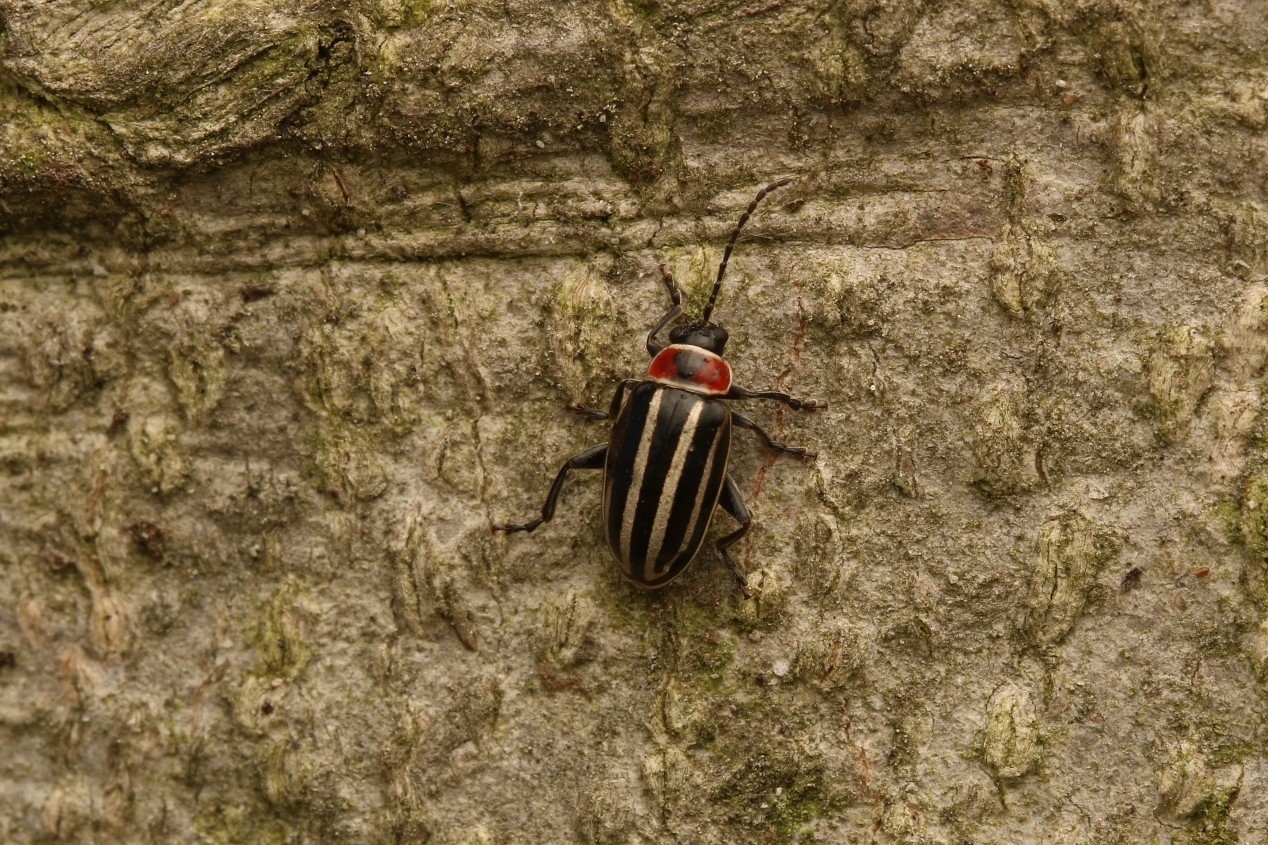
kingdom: Animalia
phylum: Arthropoda
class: Insecta
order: Coleoptera
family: Chrysomelidae
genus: Disonycha
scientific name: Disonycha pensylvanica
